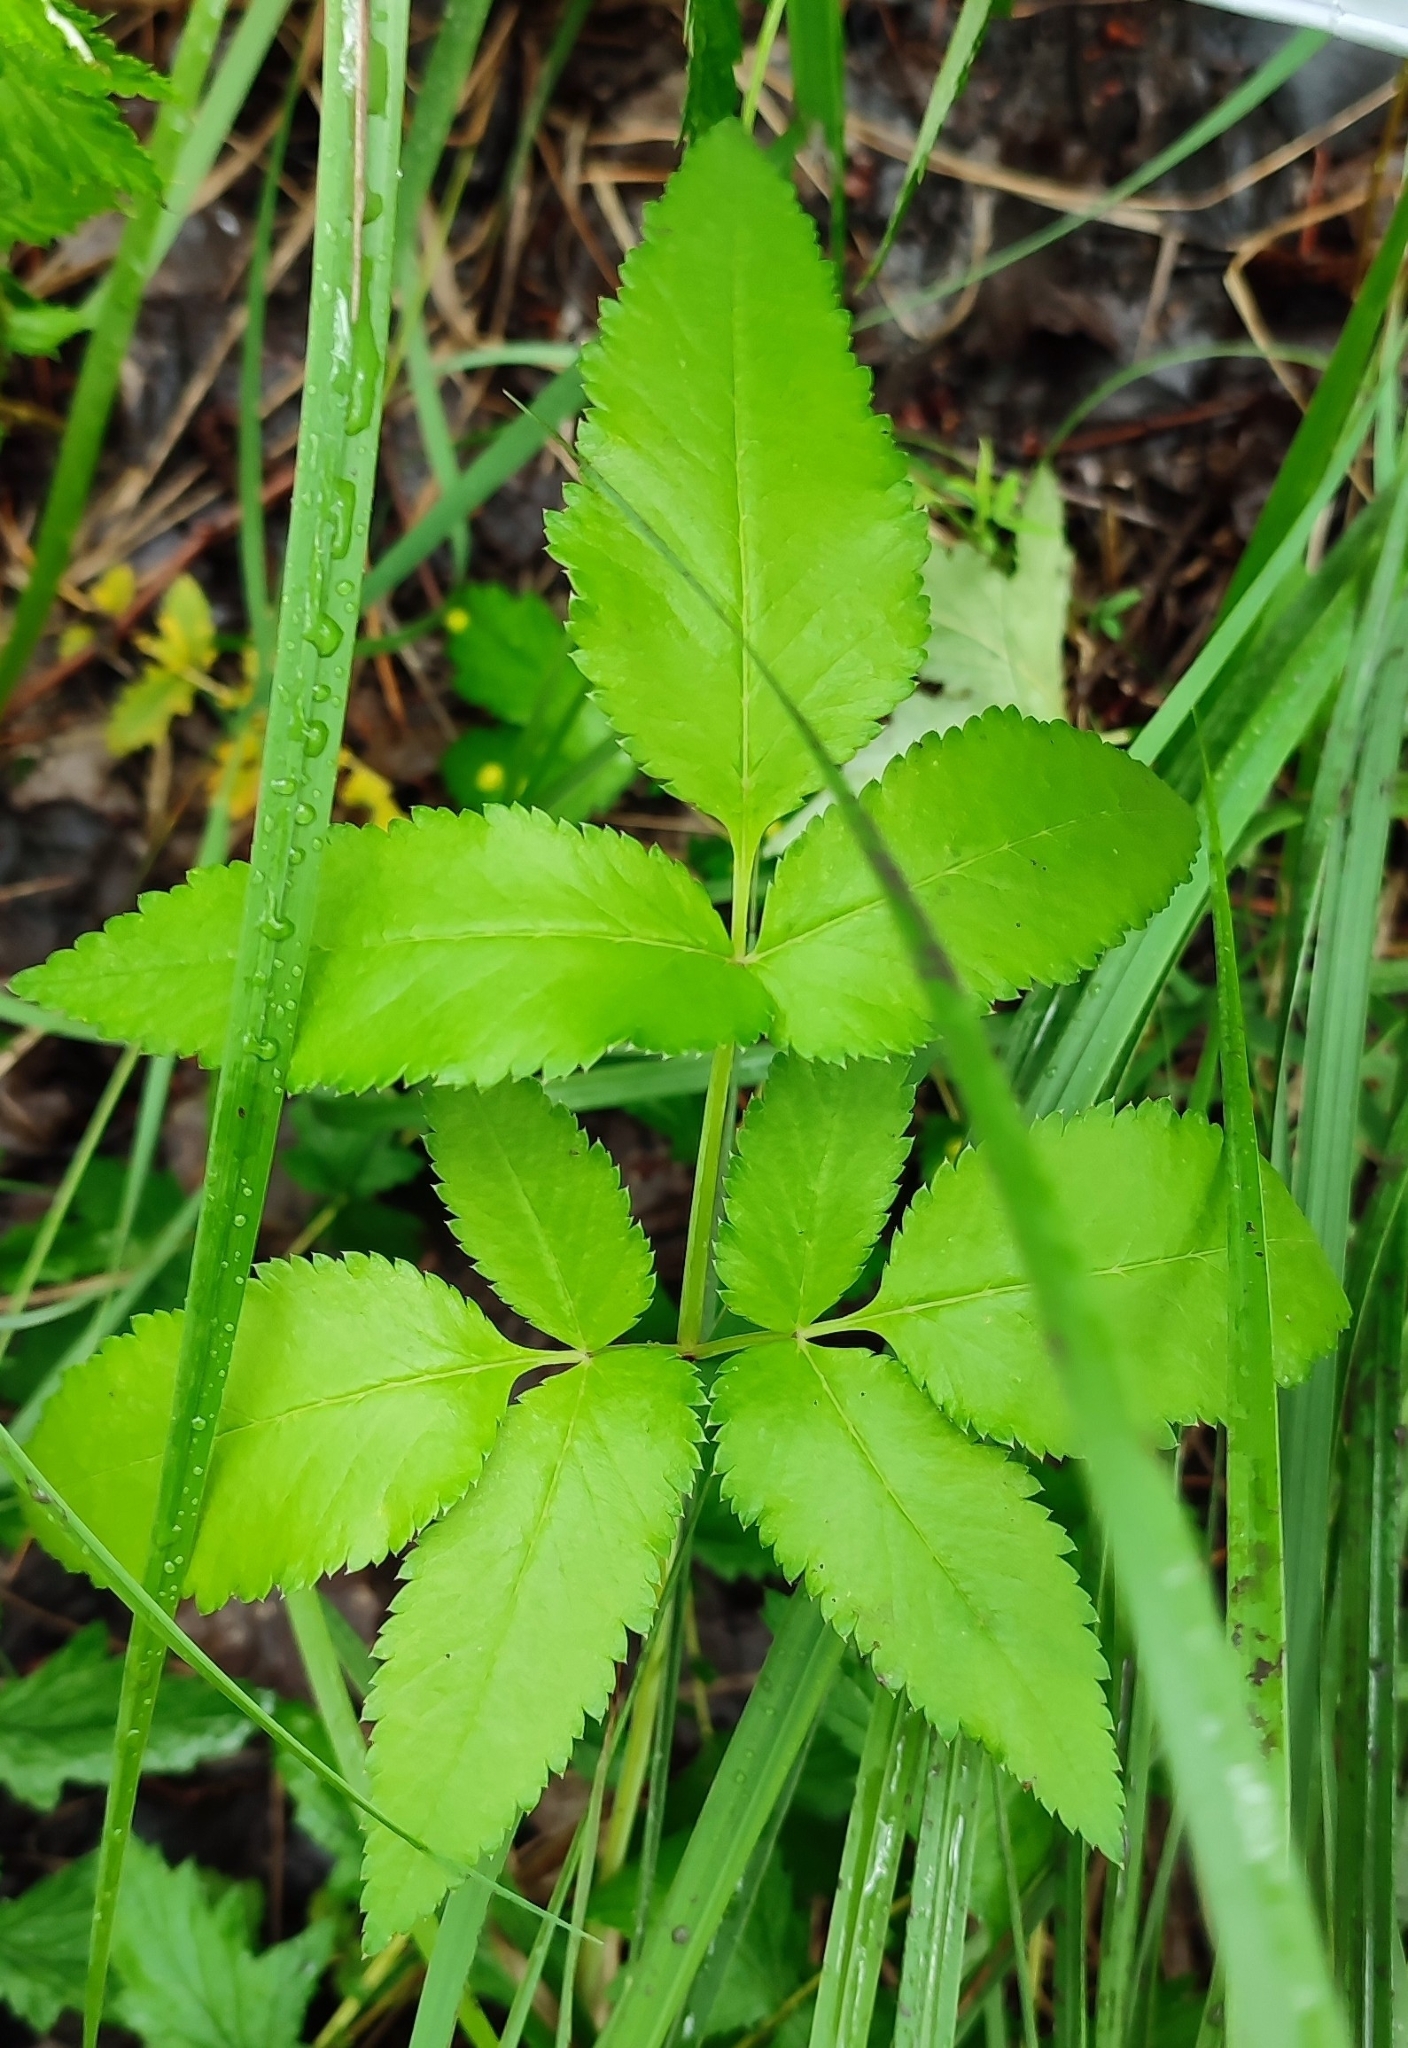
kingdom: Plantae
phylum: Tracheophyta
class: Magnoliopsida
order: Apiales
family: Apiaceae
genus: Angelica
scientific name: Angelica sylvestris
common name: Wild angelica
